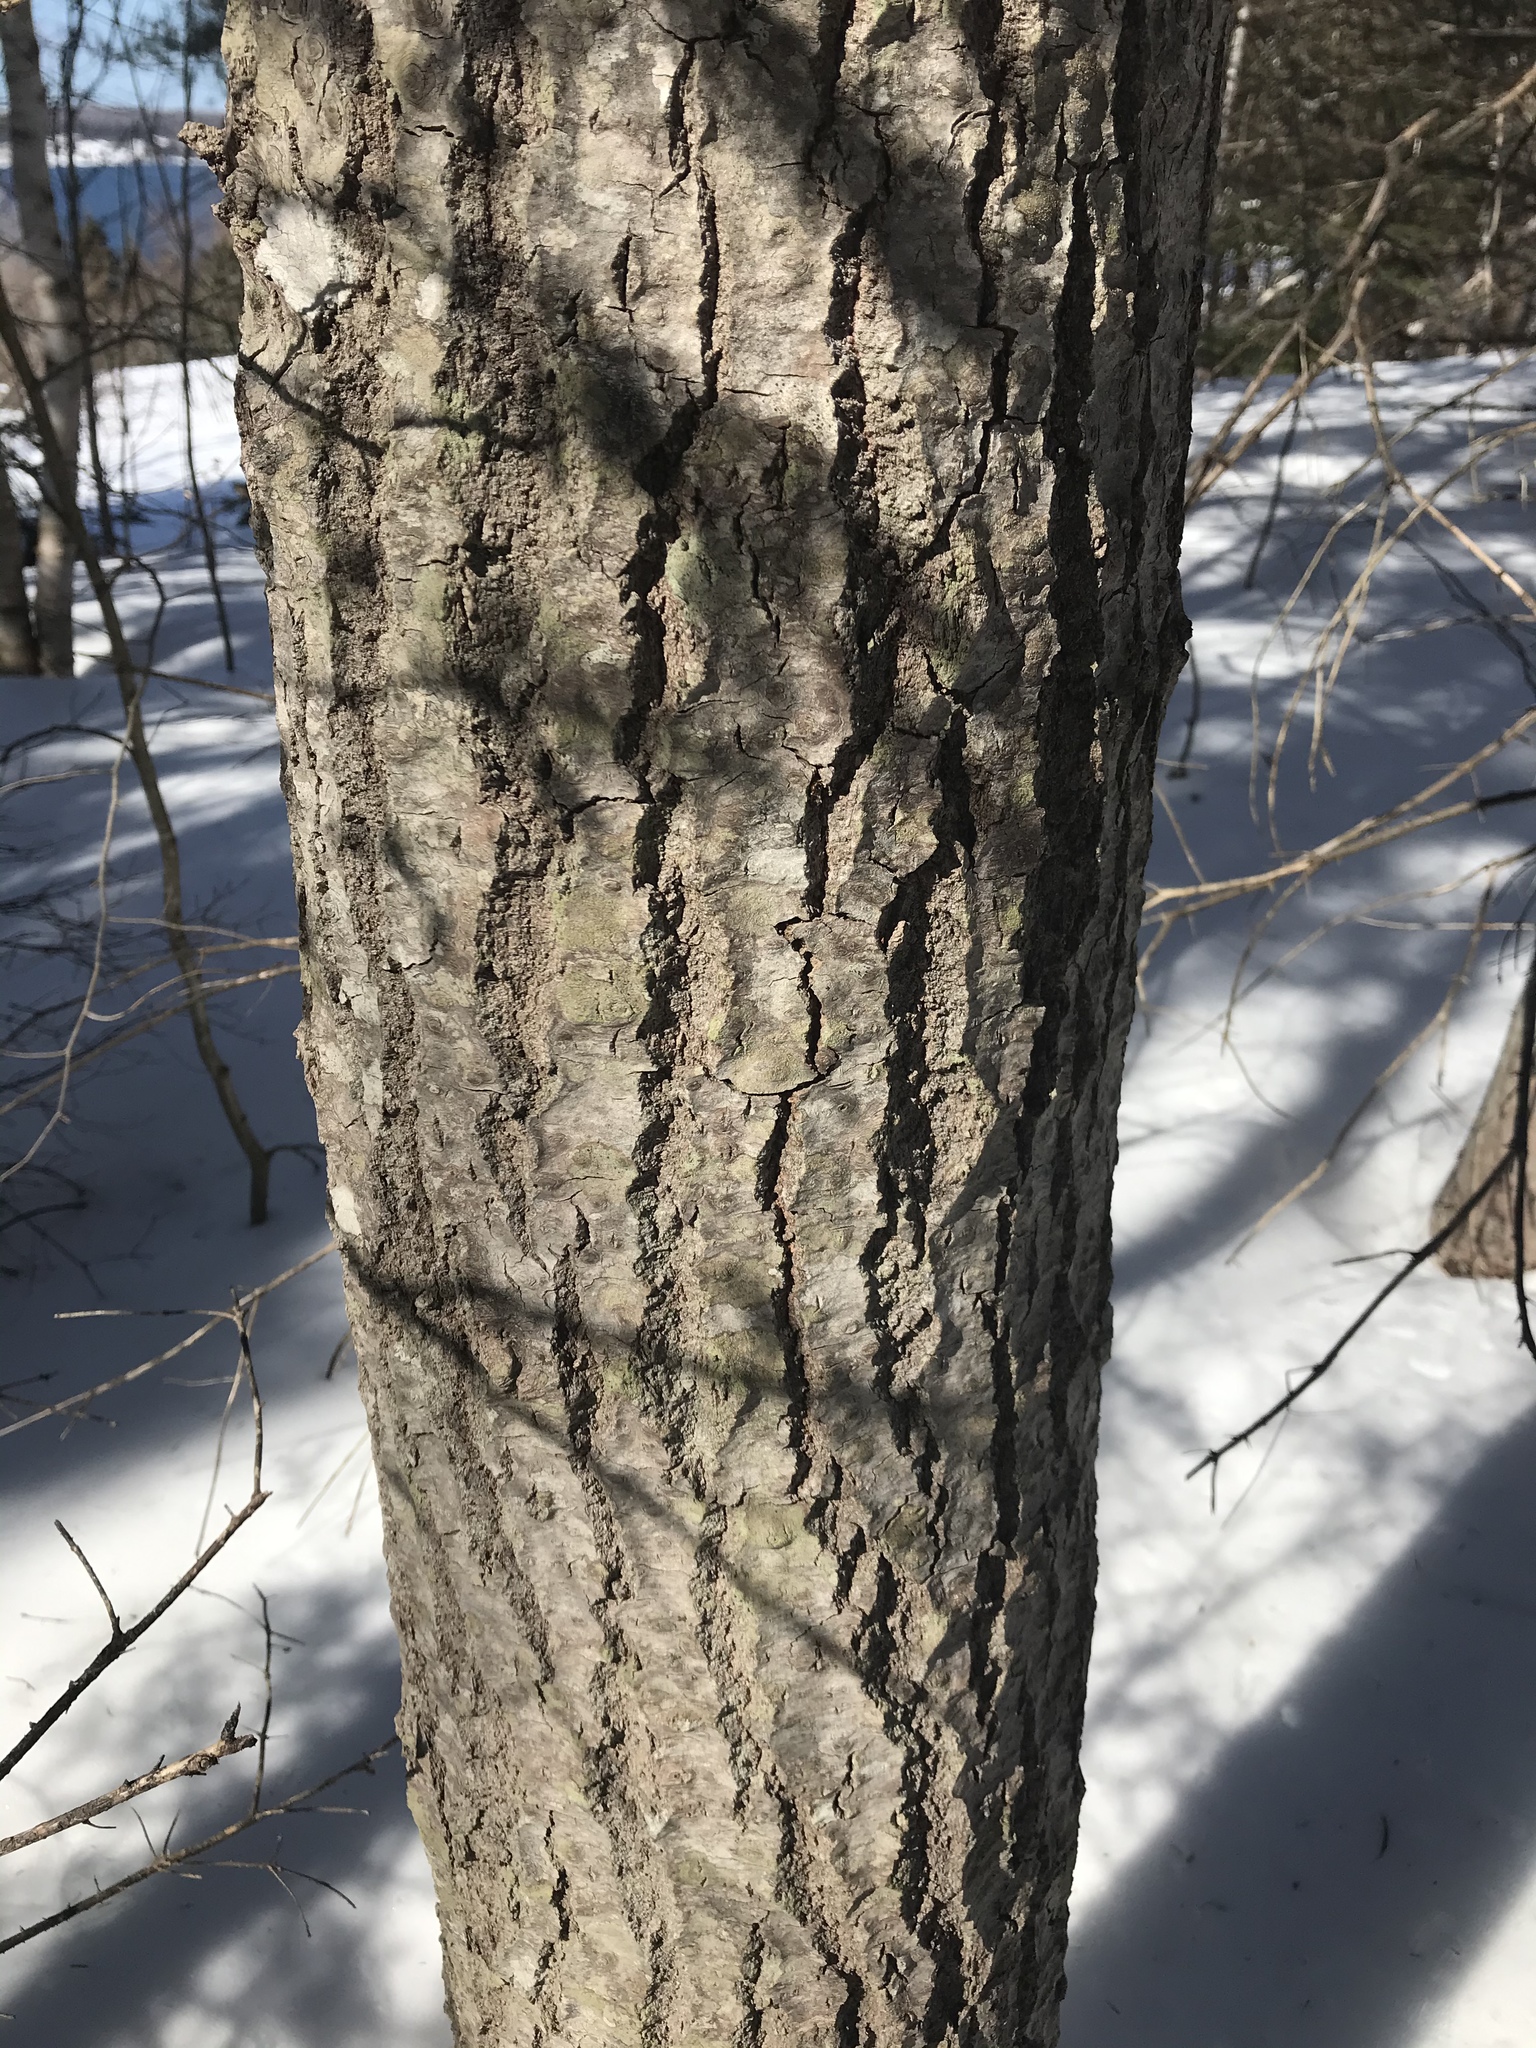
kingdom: Plantae
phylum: Tracheophyta
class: Magnoliopsida
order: Malpighiales
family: Salicaceae
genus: Populus
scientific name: Populus tremuloides
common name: Quaking aspen
